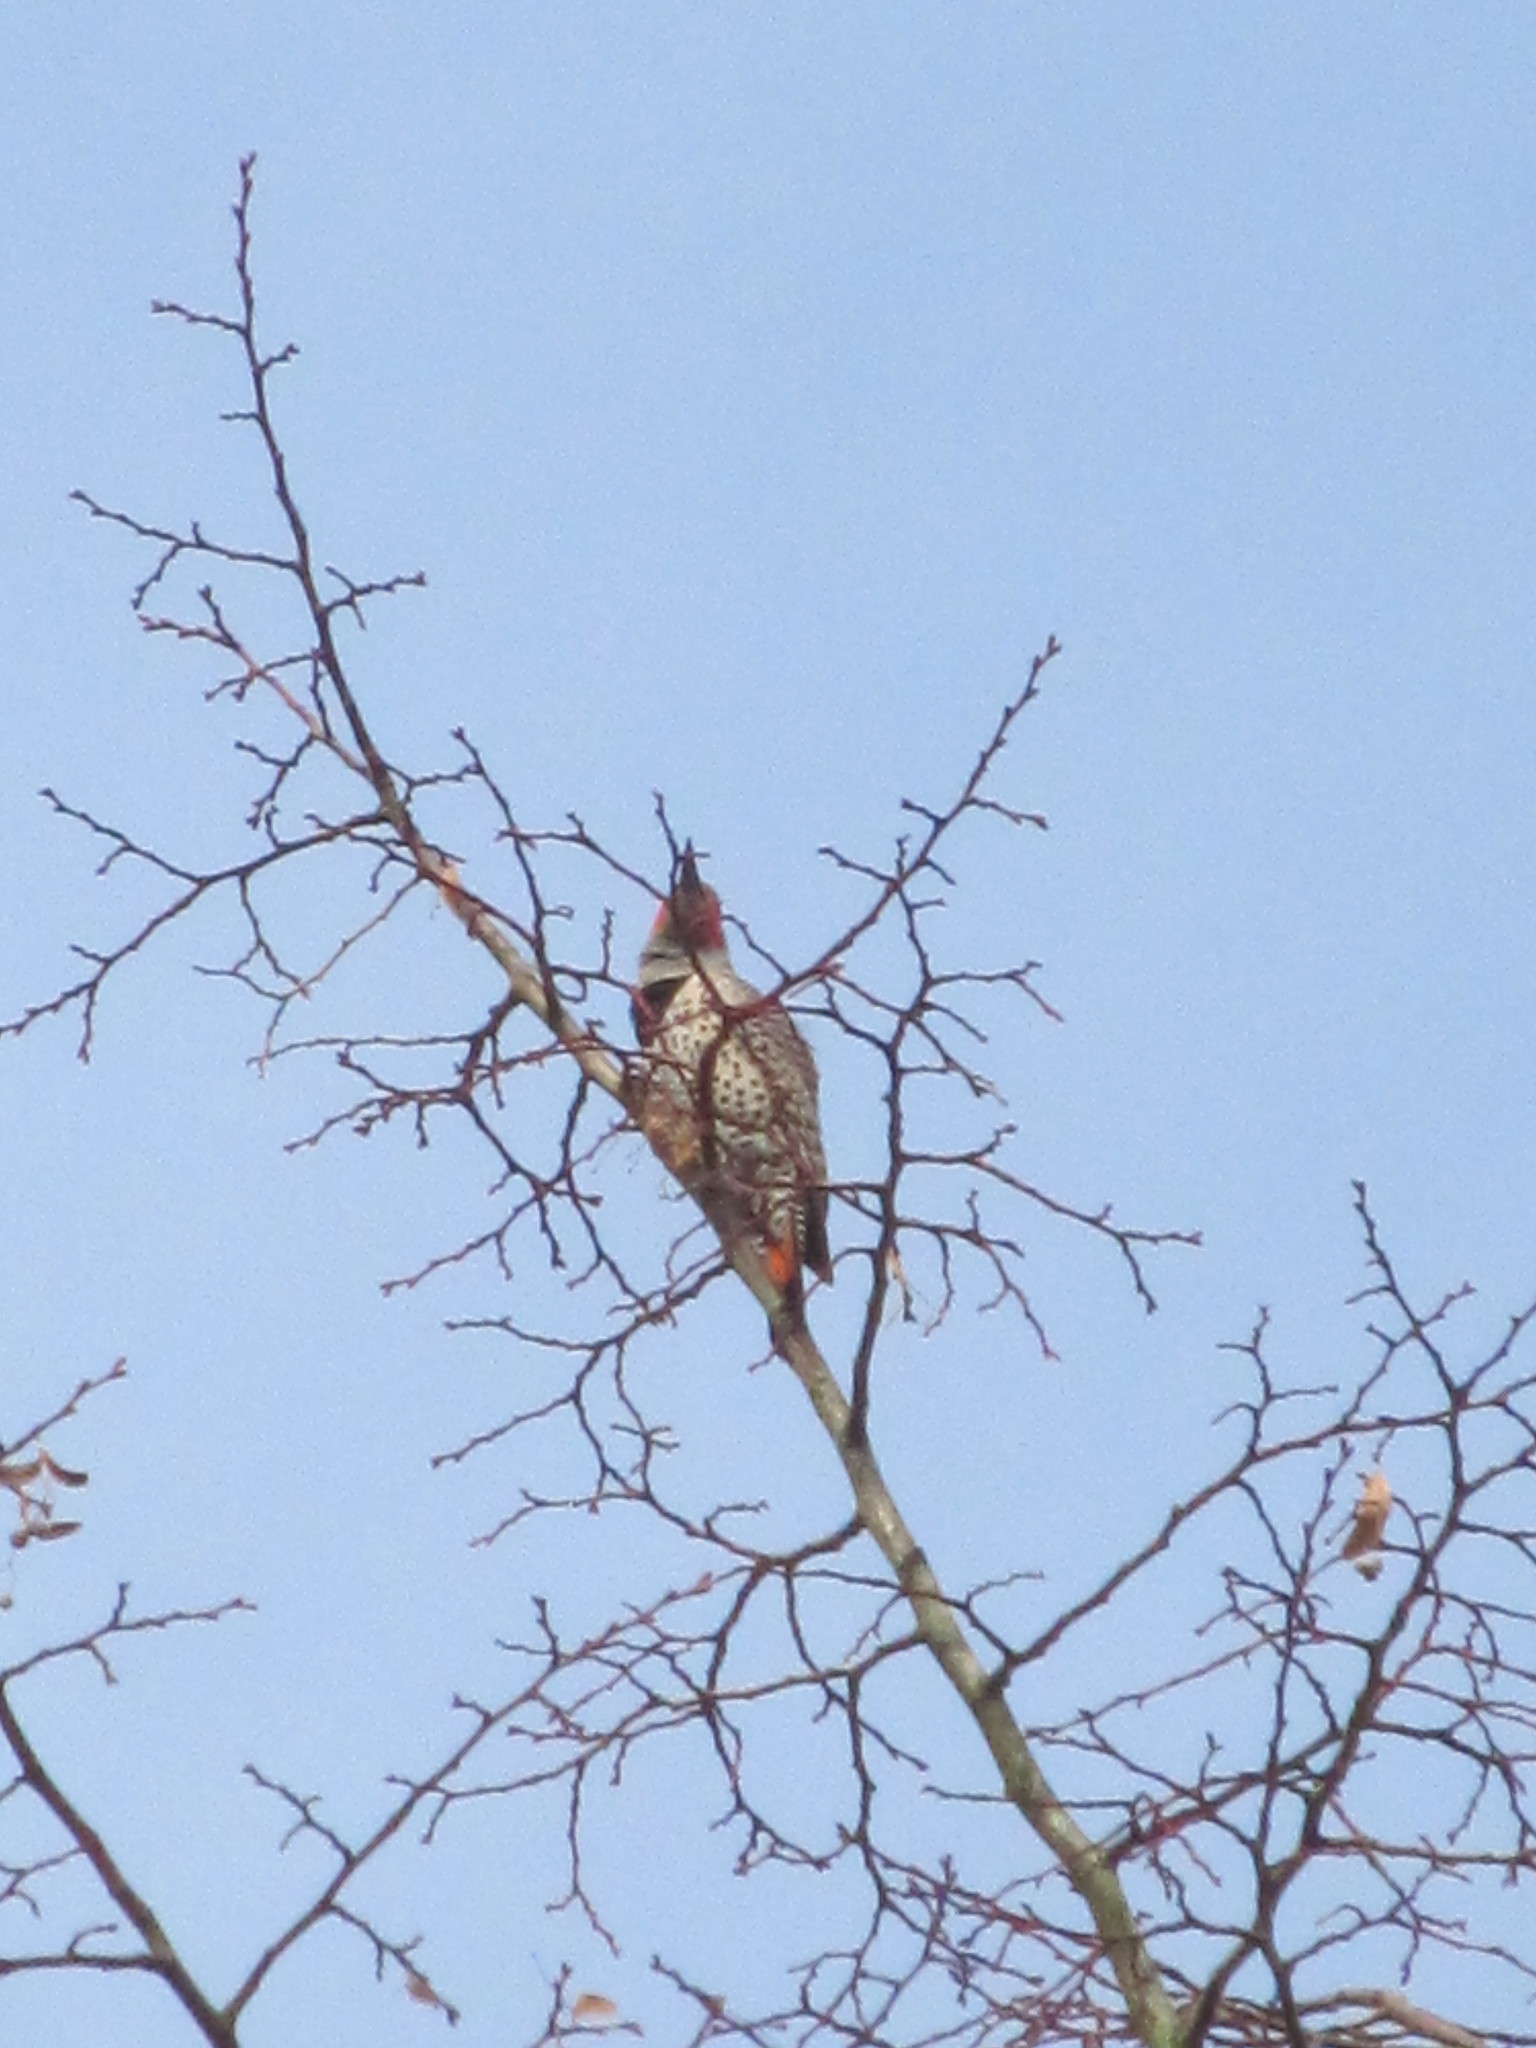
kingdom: Animalia
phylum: Chordata
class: Aves
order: Piciformes
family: Picidae
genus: Colaptes
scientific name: Colaptes auratus
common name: Northern flicker
